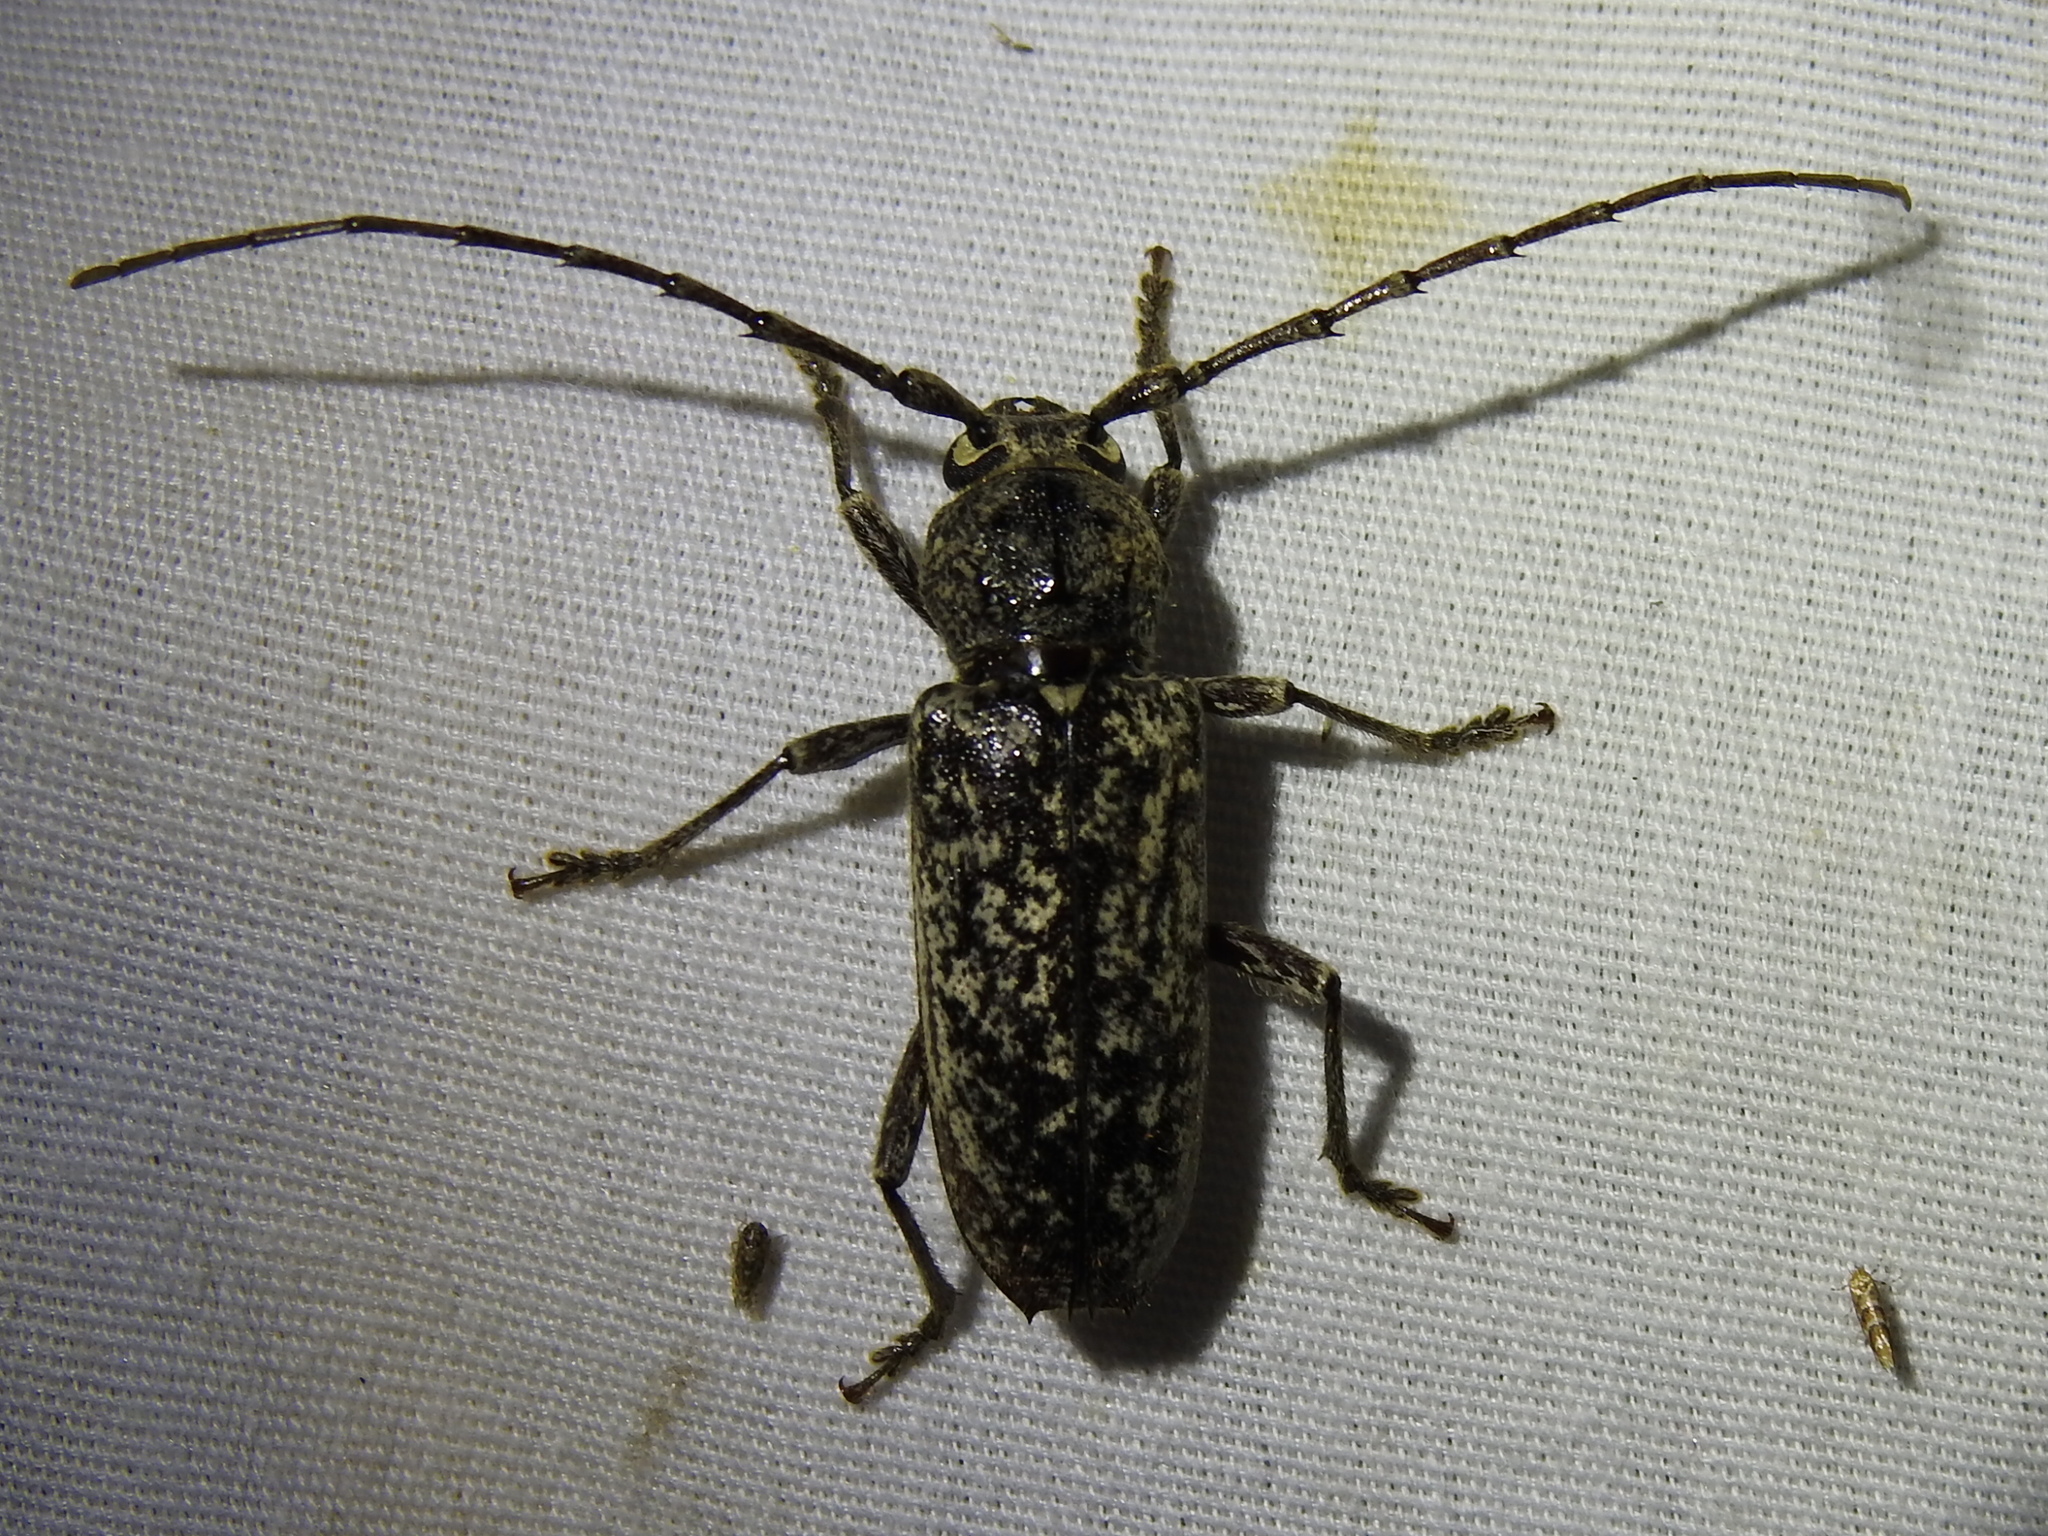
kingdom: Animalia
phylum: Arthropoda
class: Insecta
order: Coleoptera
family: Cerambycidae
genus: Enaphalodes
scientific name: Enaphalodes atomarius
